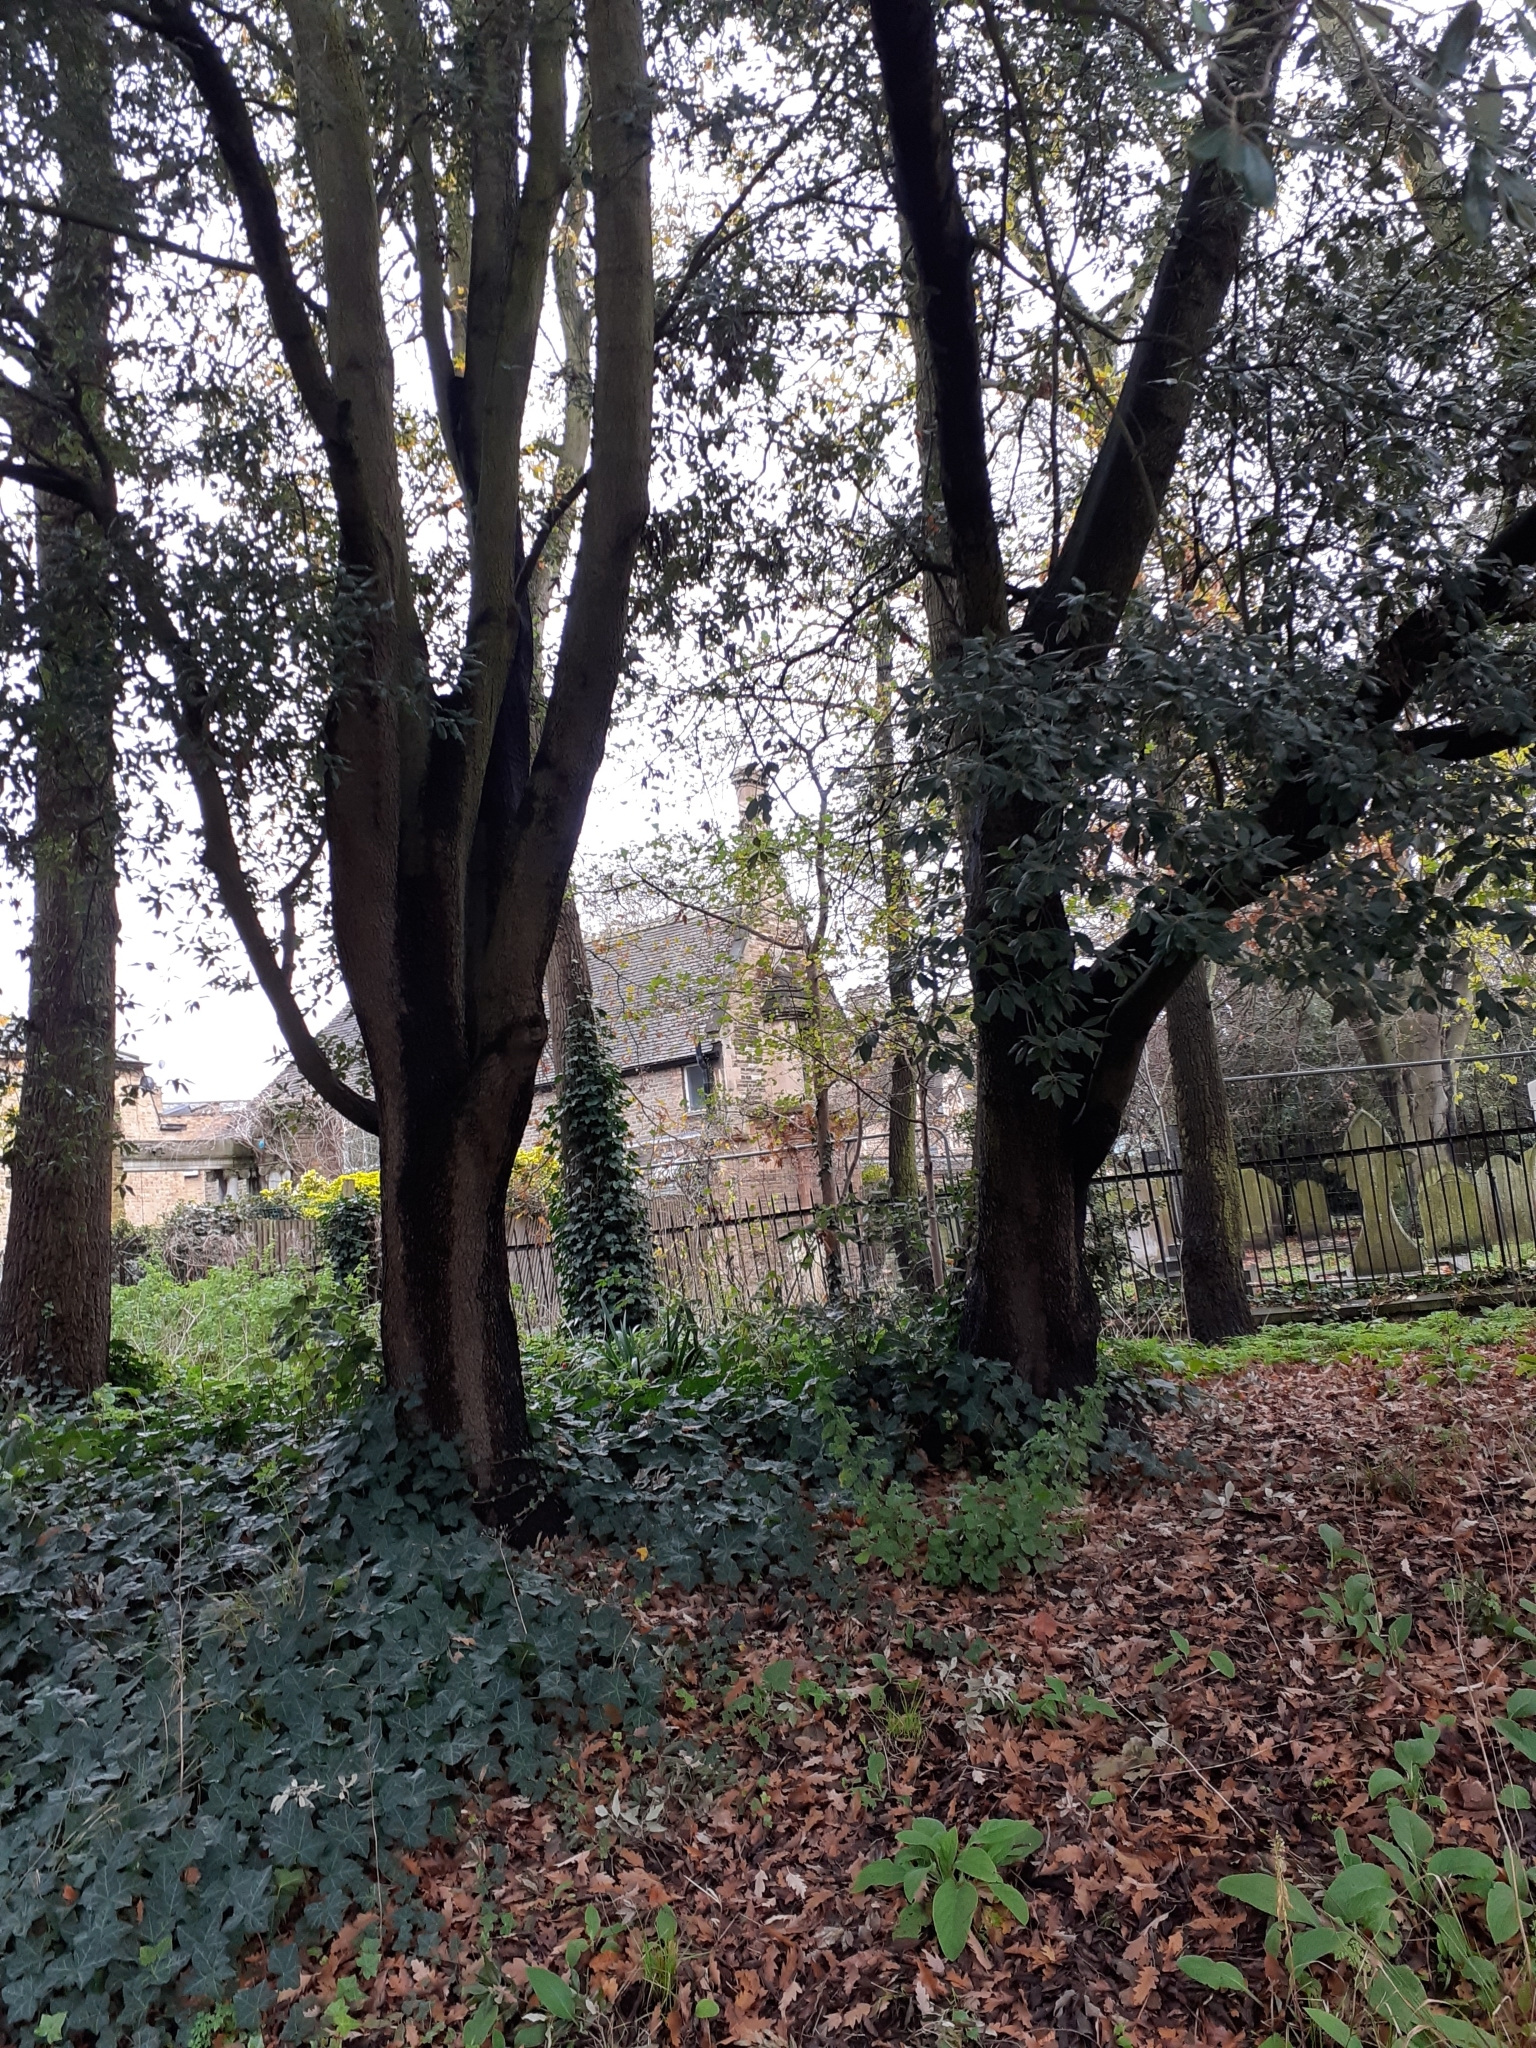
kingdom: Plantae
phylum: Tracheophyta
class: Magnoliopsida
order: Fagales
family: Fagaceae
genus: Quercus
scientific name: Quercus ilex
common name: Evergreen oak
